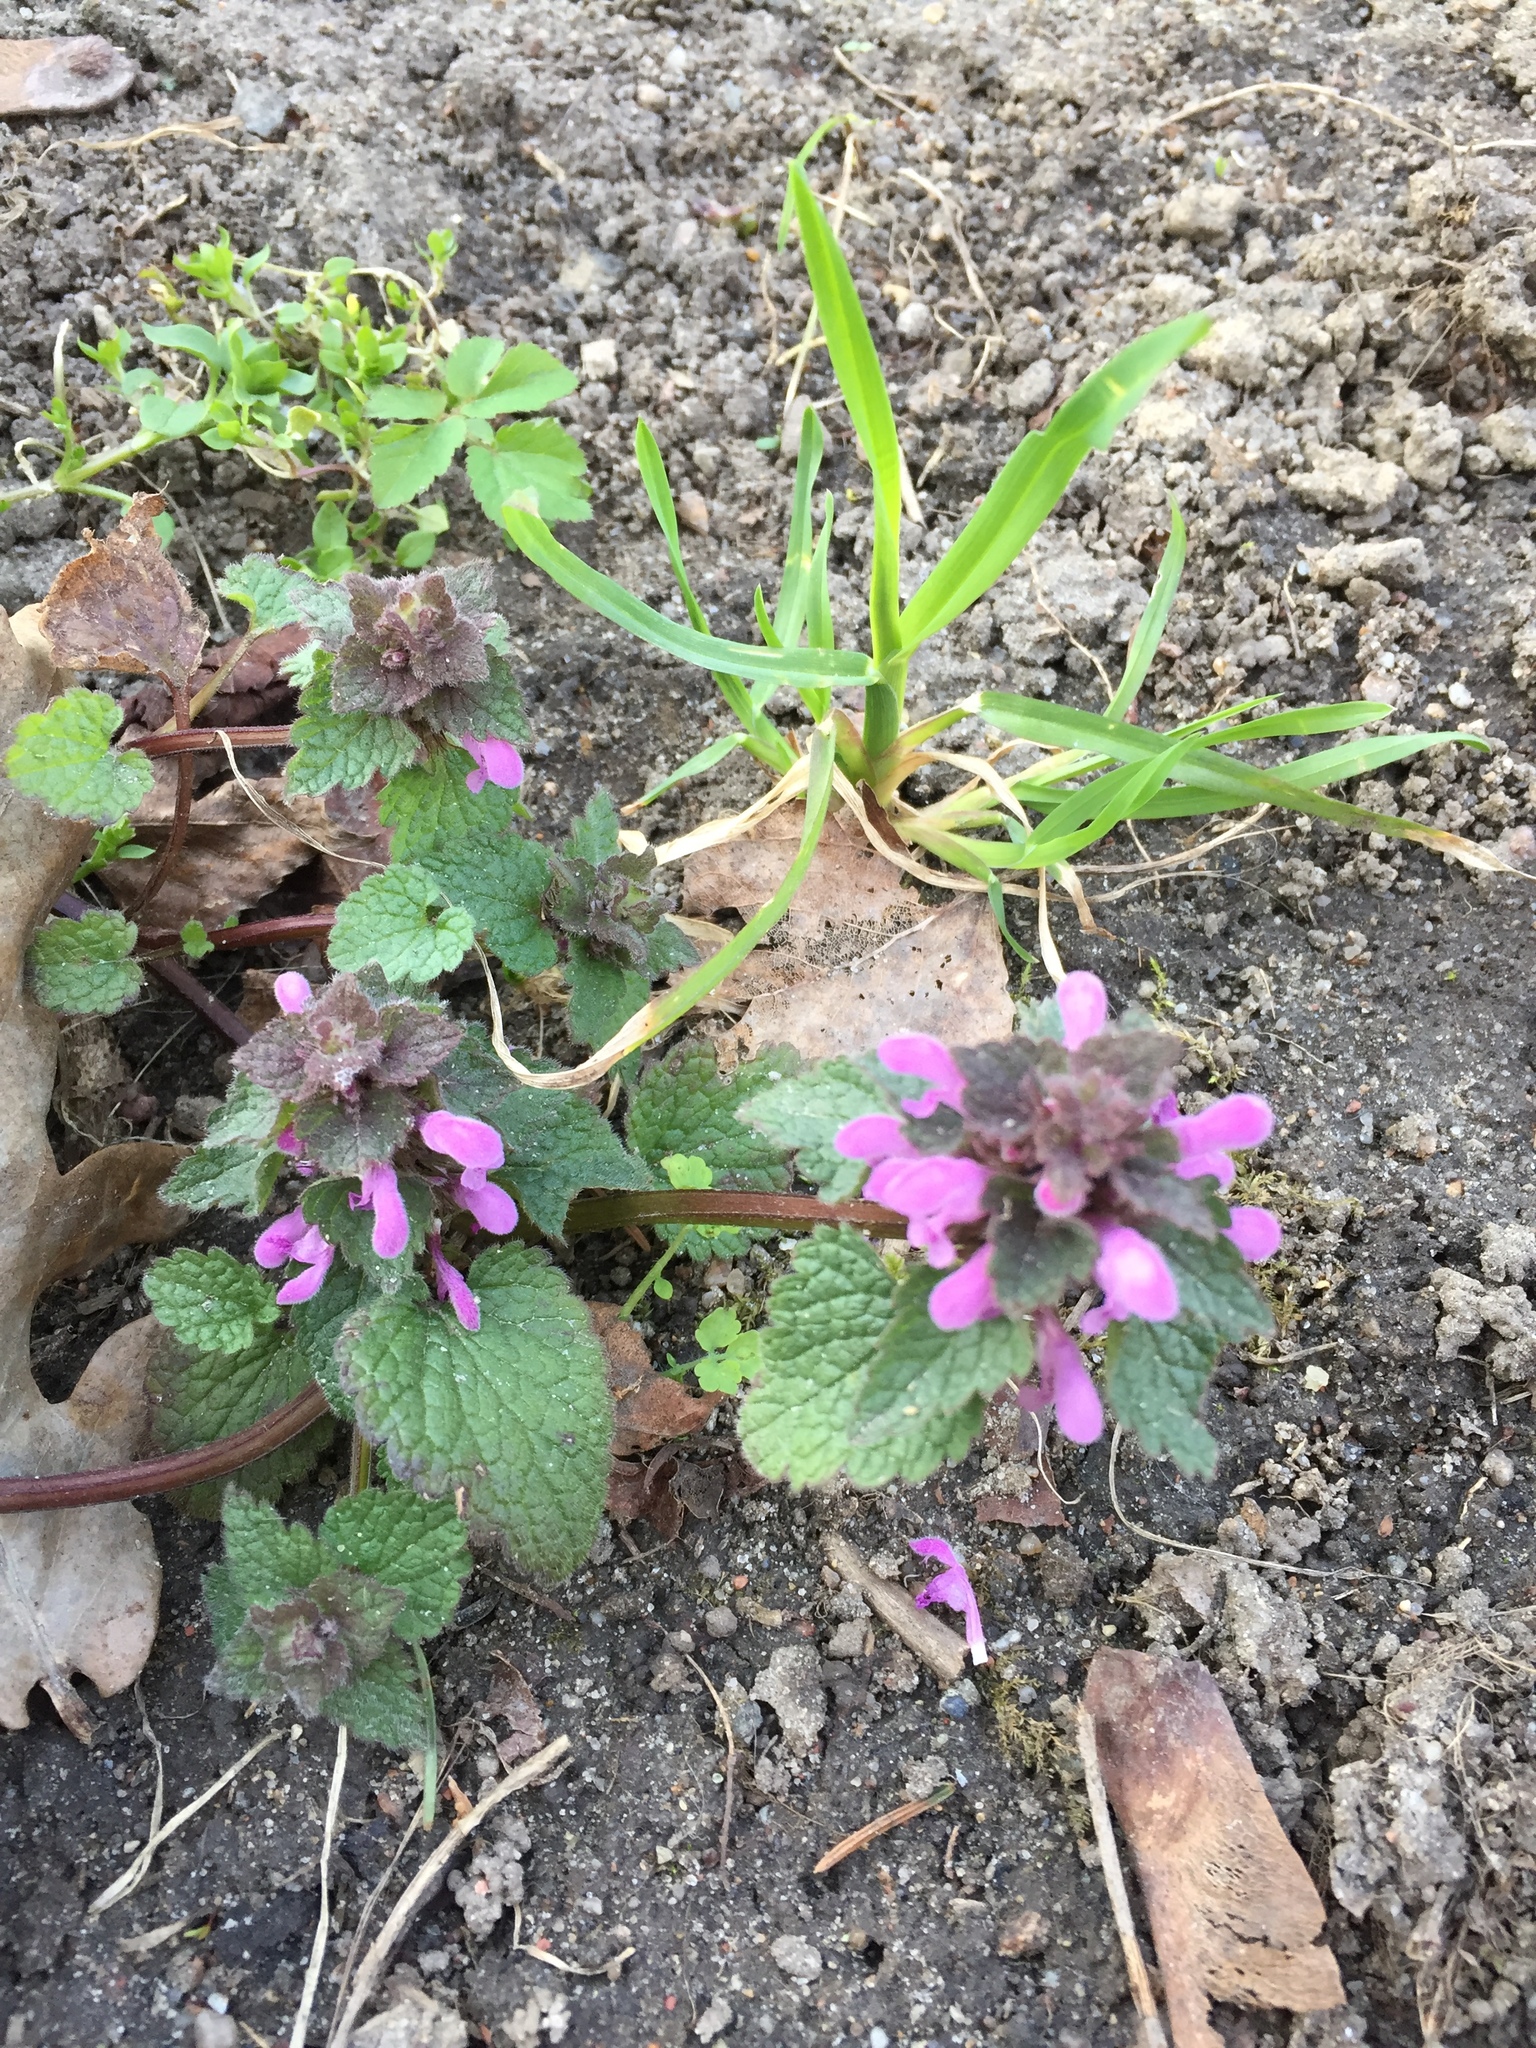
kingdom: Plantae
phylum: Tracheophyta
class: Magnoliopsida
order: Lamiales
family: Lamiaceae
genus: Lamium
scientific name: Lamium purpureum
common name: Red dead-nettle
